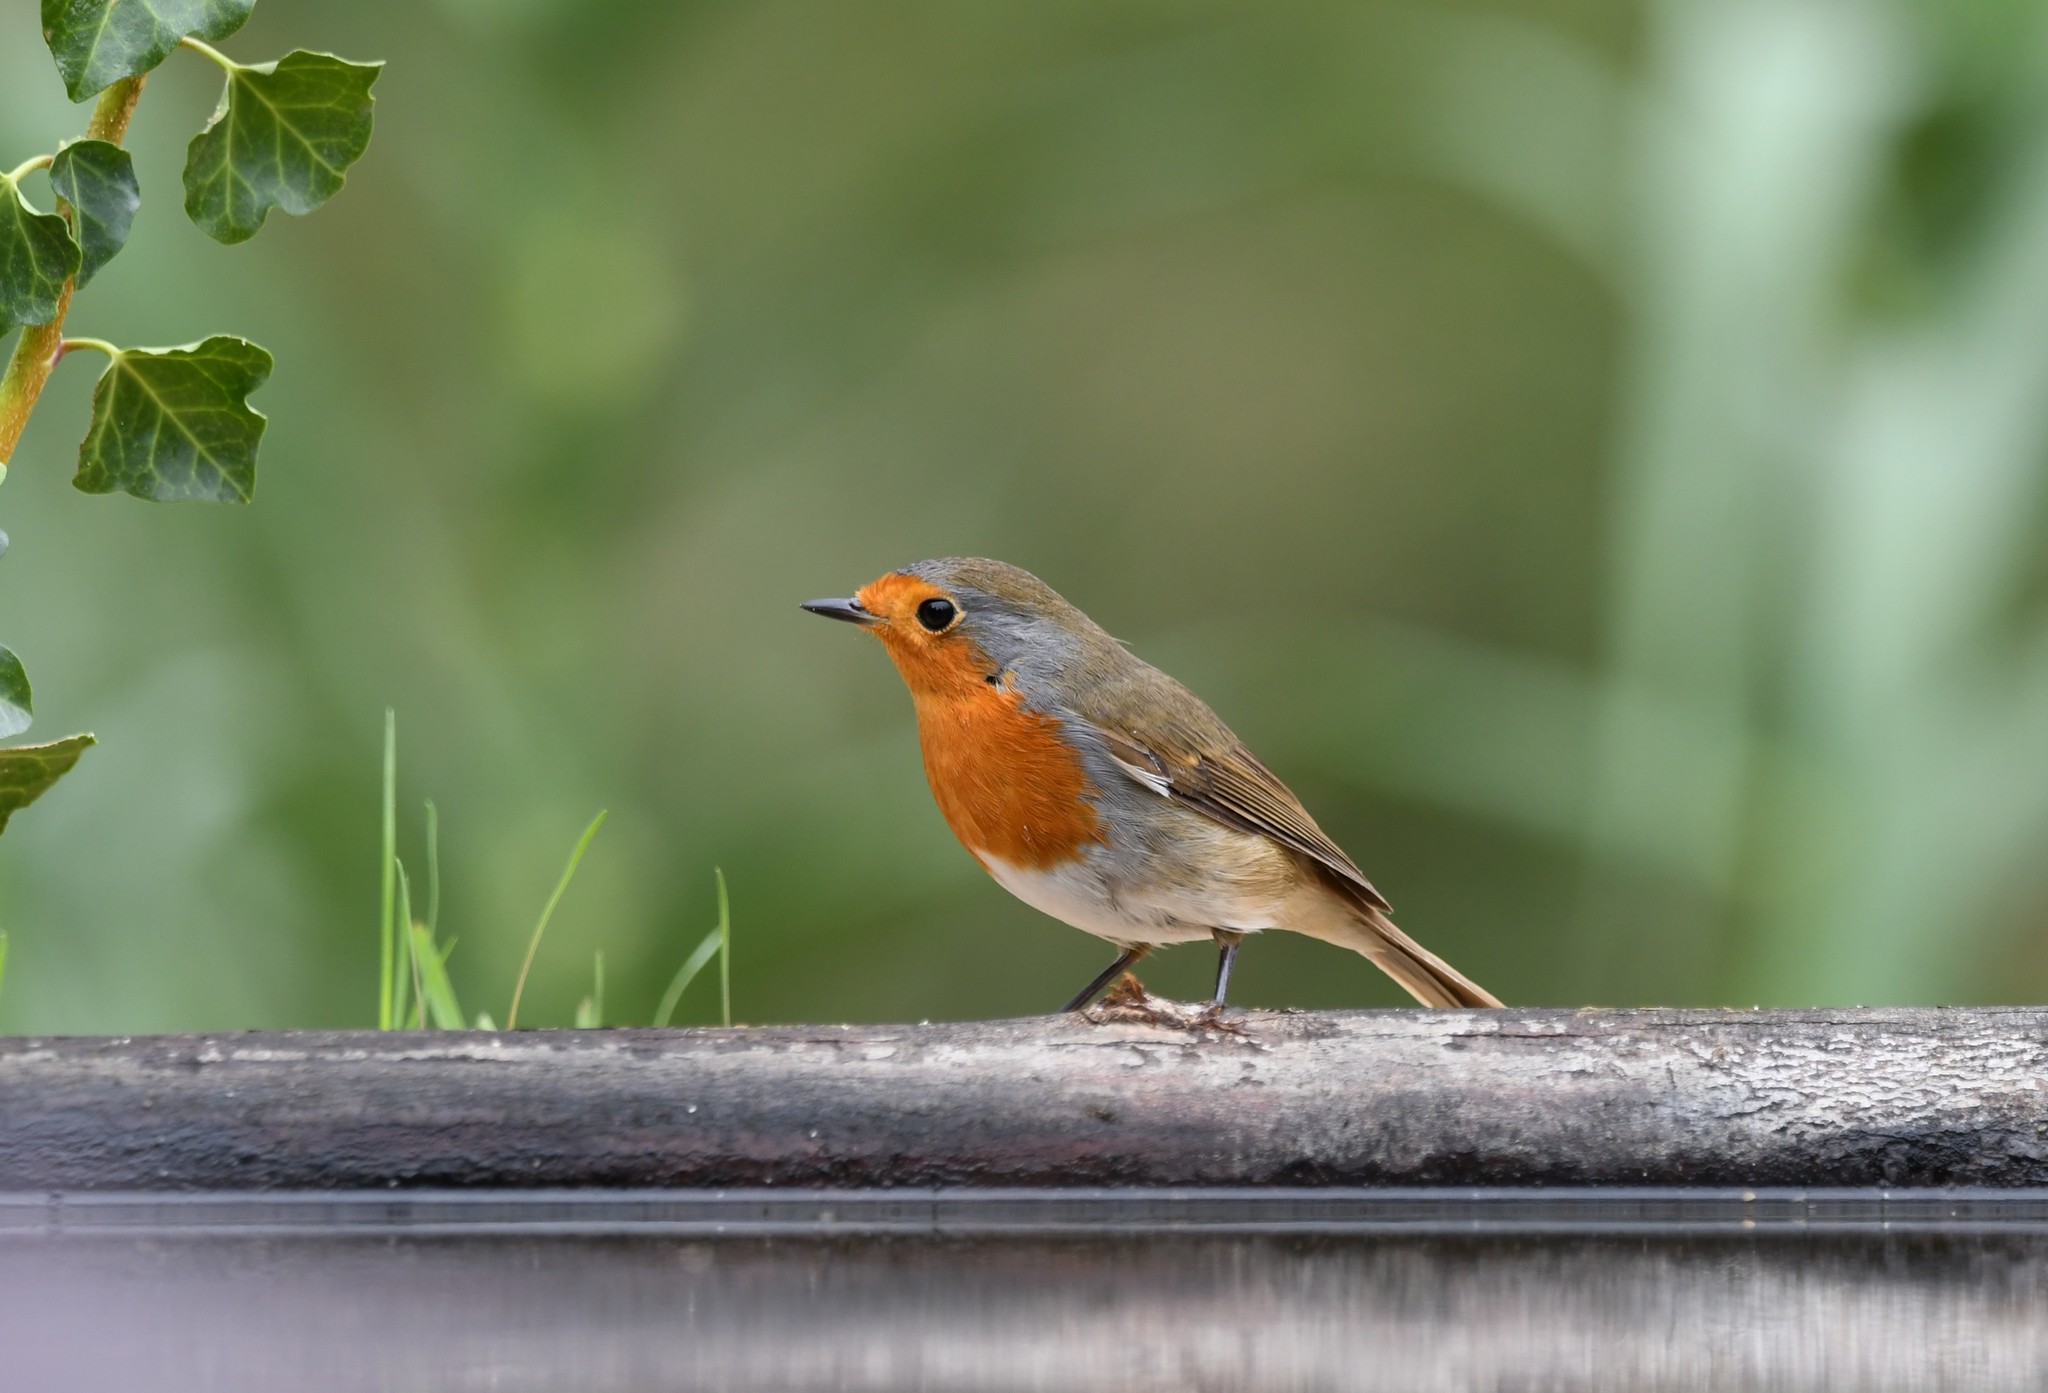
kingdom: Animalia
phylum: Chordata
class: Aves
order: Passeriformes
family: Muscicapidae
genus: Erithacus
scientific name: Erithacus rubecula
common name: European robin
